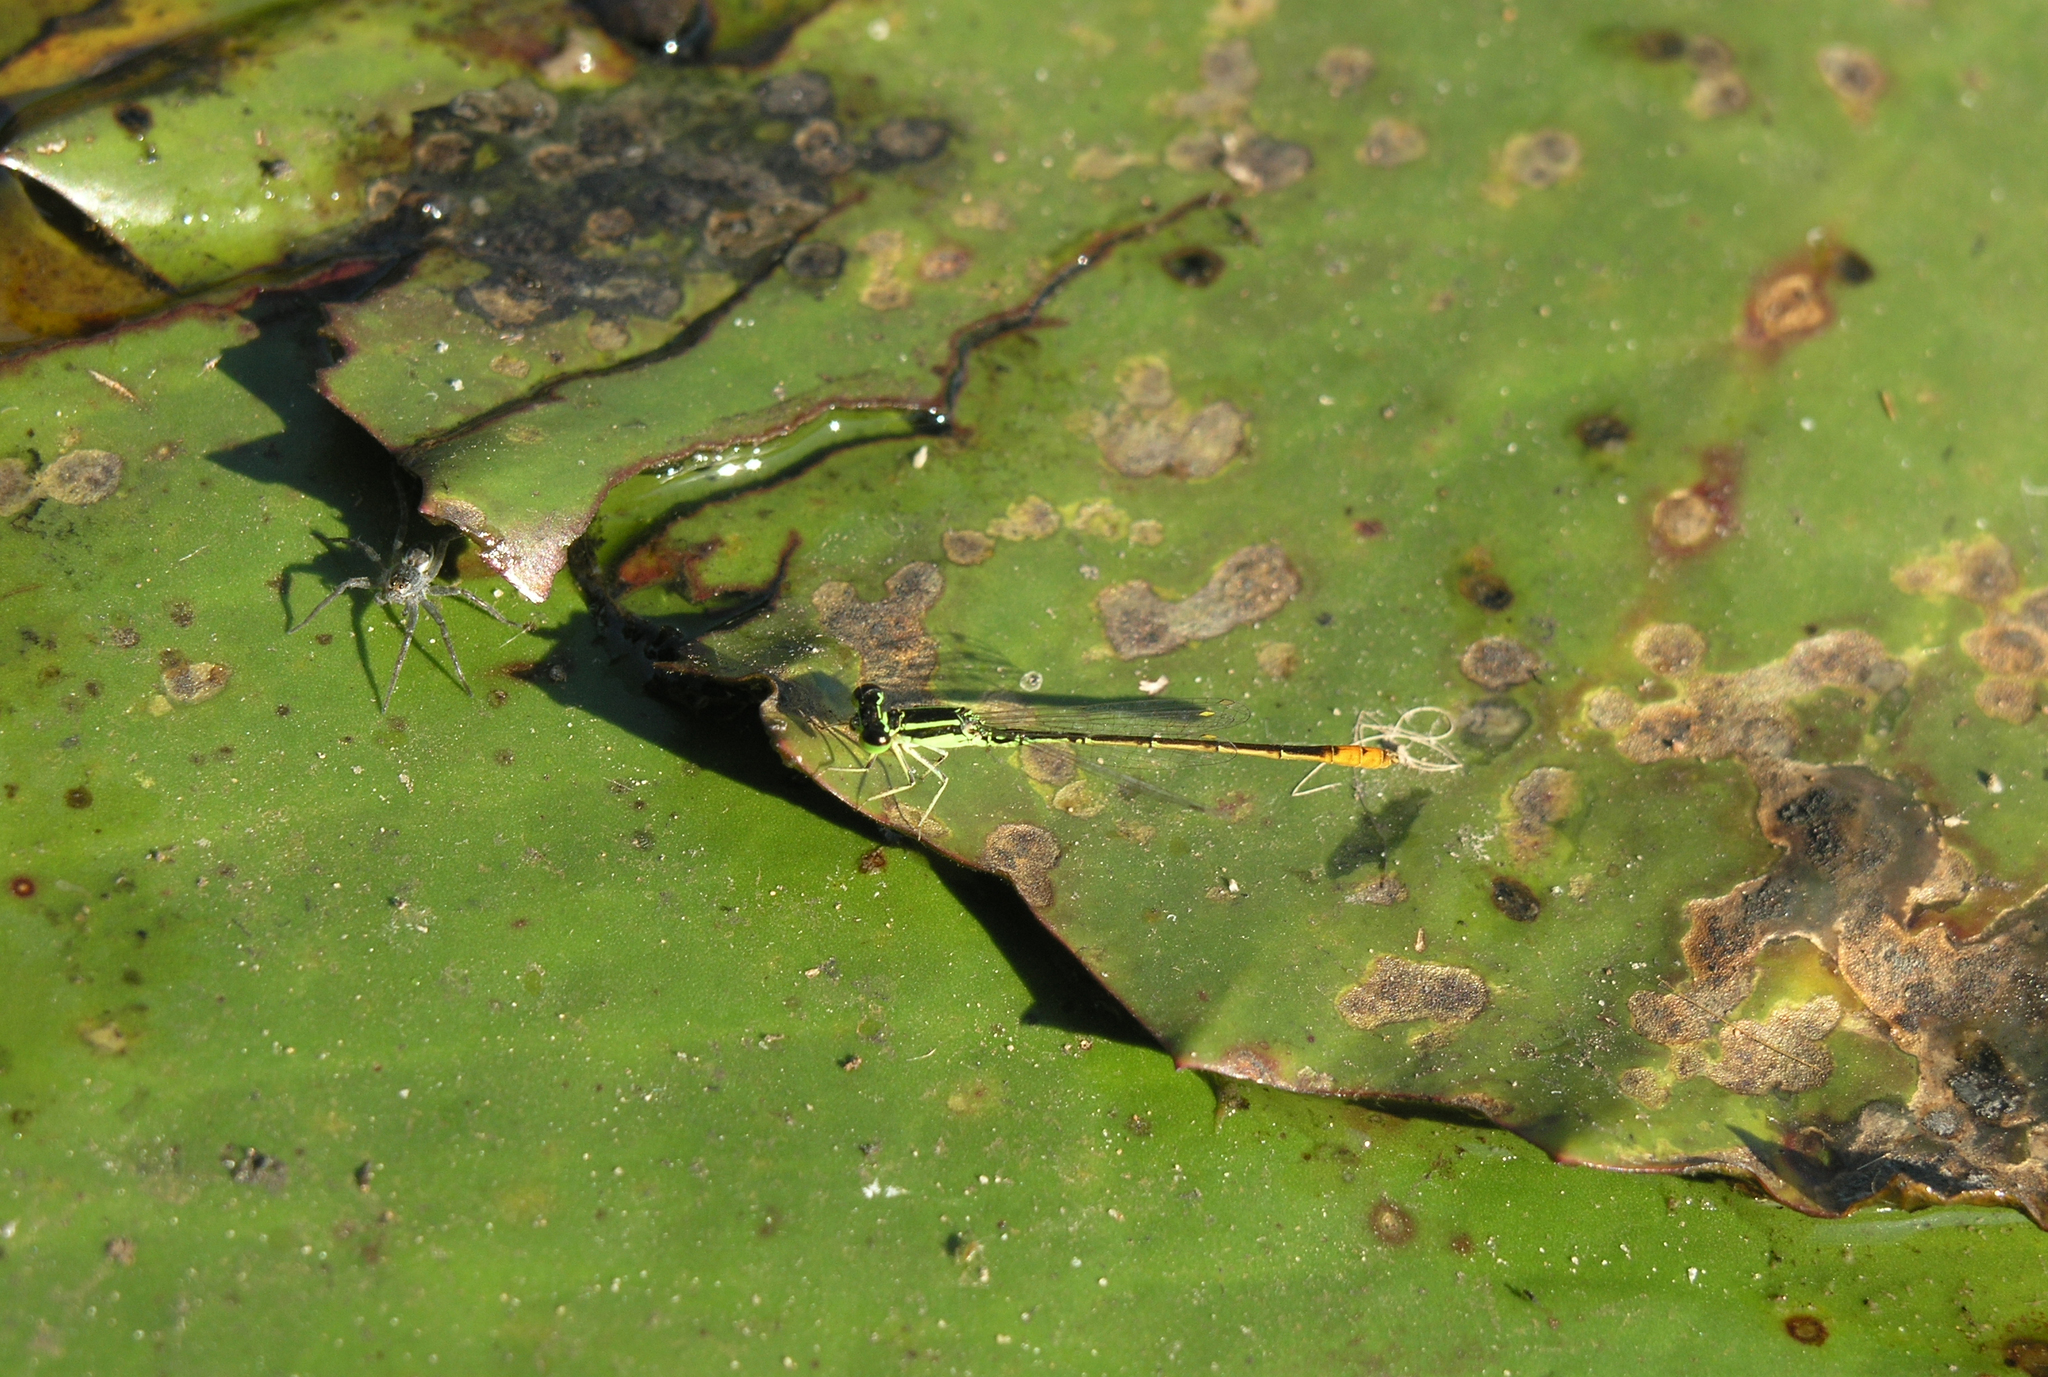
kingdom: Animalia
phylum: Arthropoda
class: Insecta
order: Odonata
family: Coenagrionidae
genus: Agriocnemis
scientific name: Agriocnemis minima
